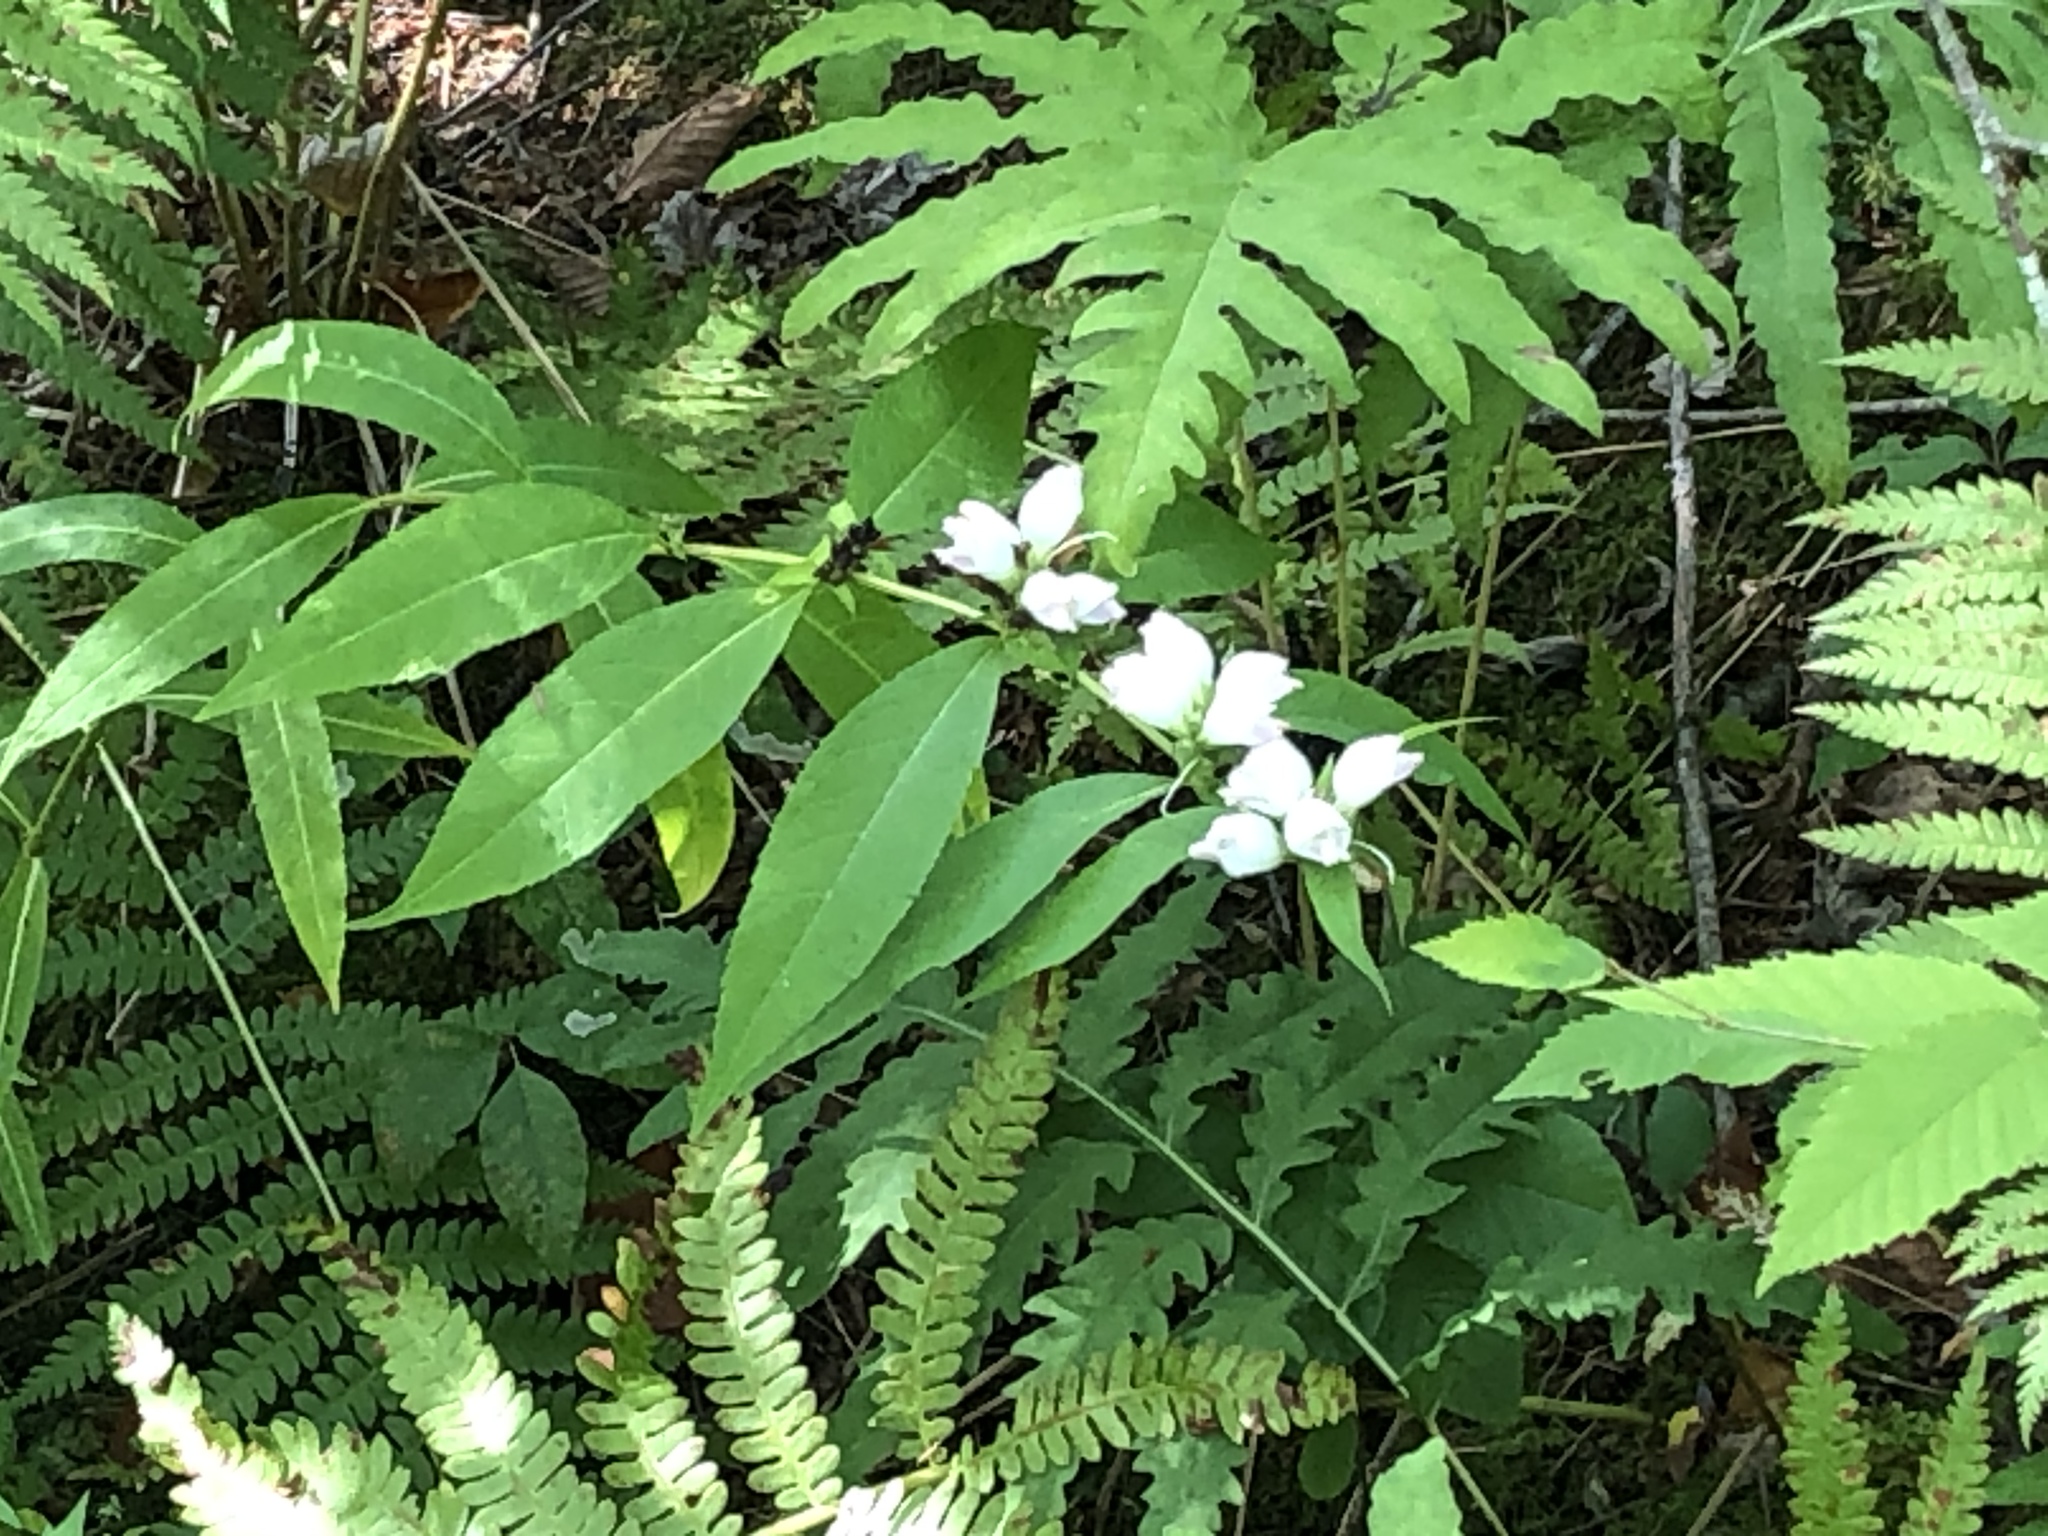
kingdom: Plantae
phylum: Tracheophyta
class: Magnoliopsida
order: Lamiales
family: Plantaginaceae
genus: Chelone
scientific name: Chelone glabra
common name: Snakehead
